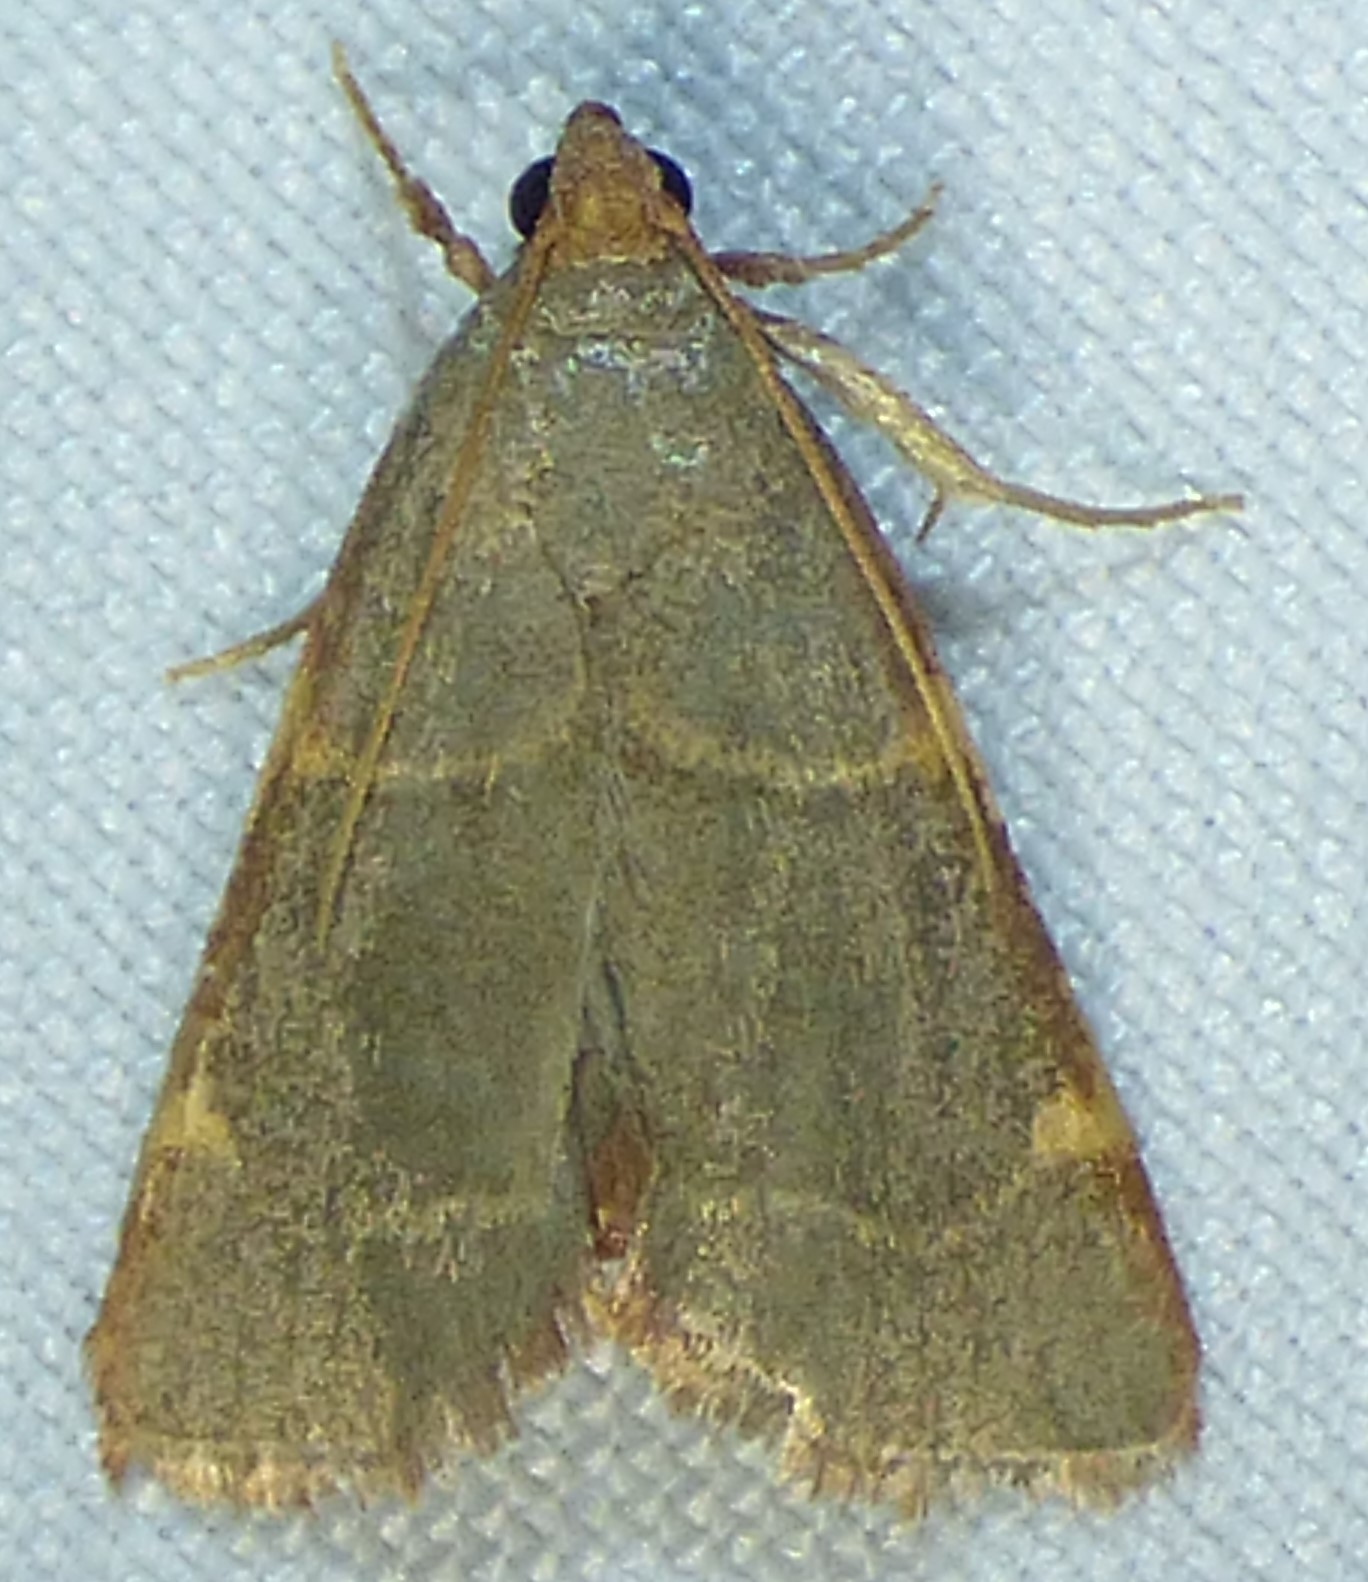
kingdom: Animalia
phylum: Arthropoda
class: Insecta
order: Lepidoptera
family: Pyralidae
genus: Hypsopygia
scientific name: Hypsopygia binodulalis
